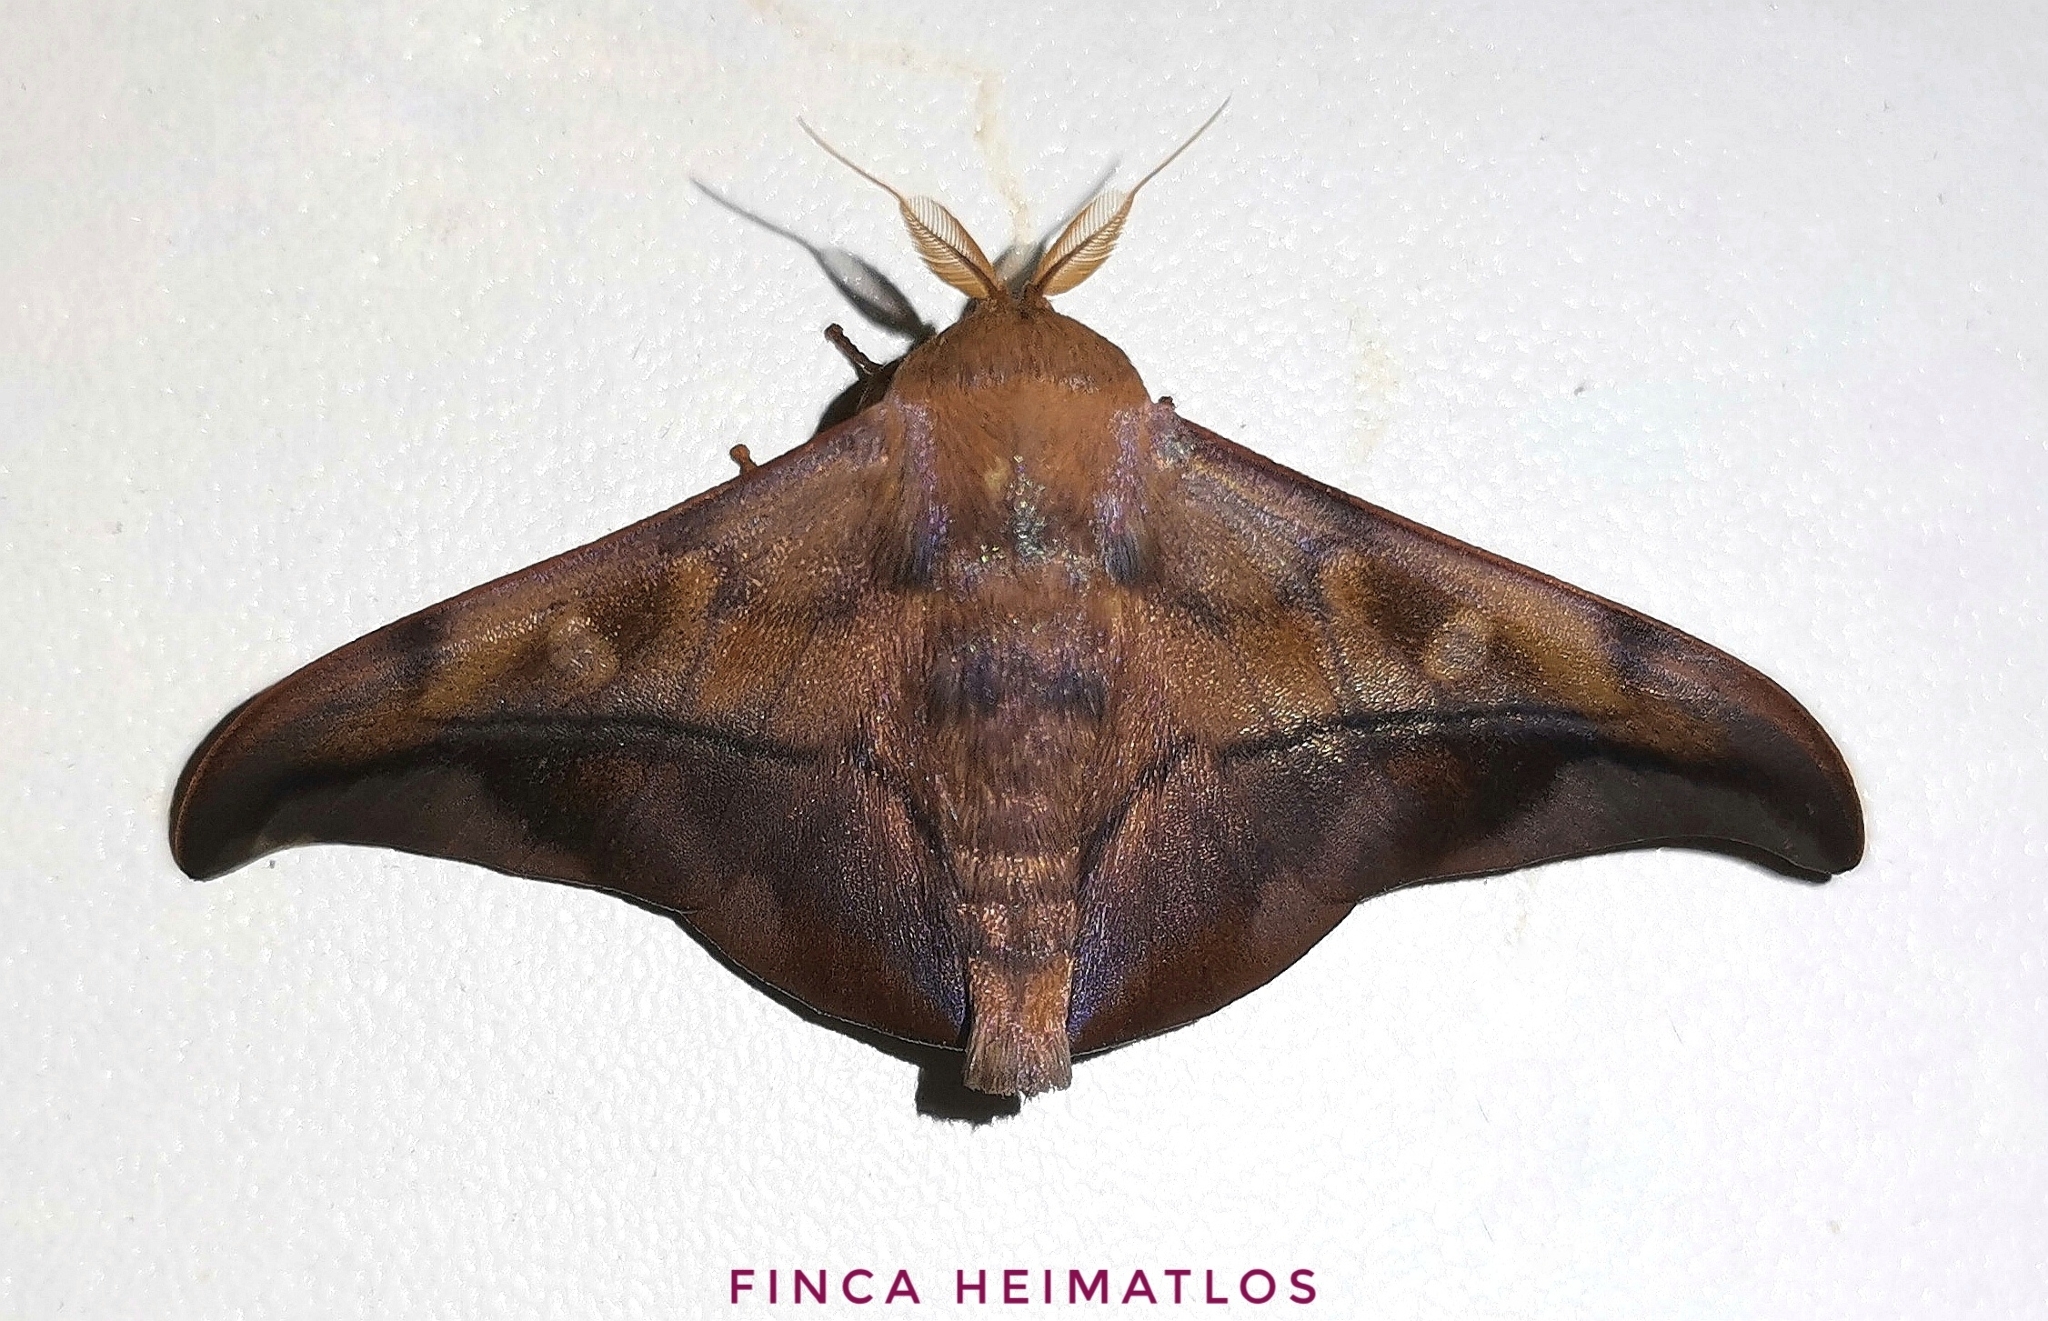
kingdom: Animalia
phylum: Arthropoda
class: Insecta
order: Lepidoptera
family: Mimallonidae
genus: Cicinnus
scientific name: Cicinnus anysia
